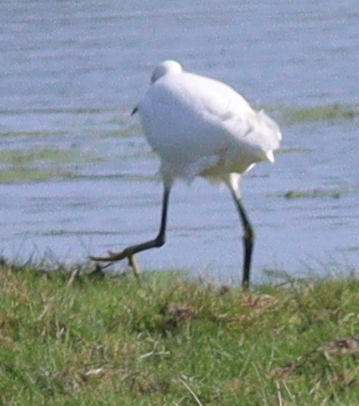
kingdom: Animalia
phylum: Chordata
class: Aves
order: Pelecaniformes
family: Ardeidae
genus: Egretta
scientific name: Egretta garzetta
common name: Little egret
